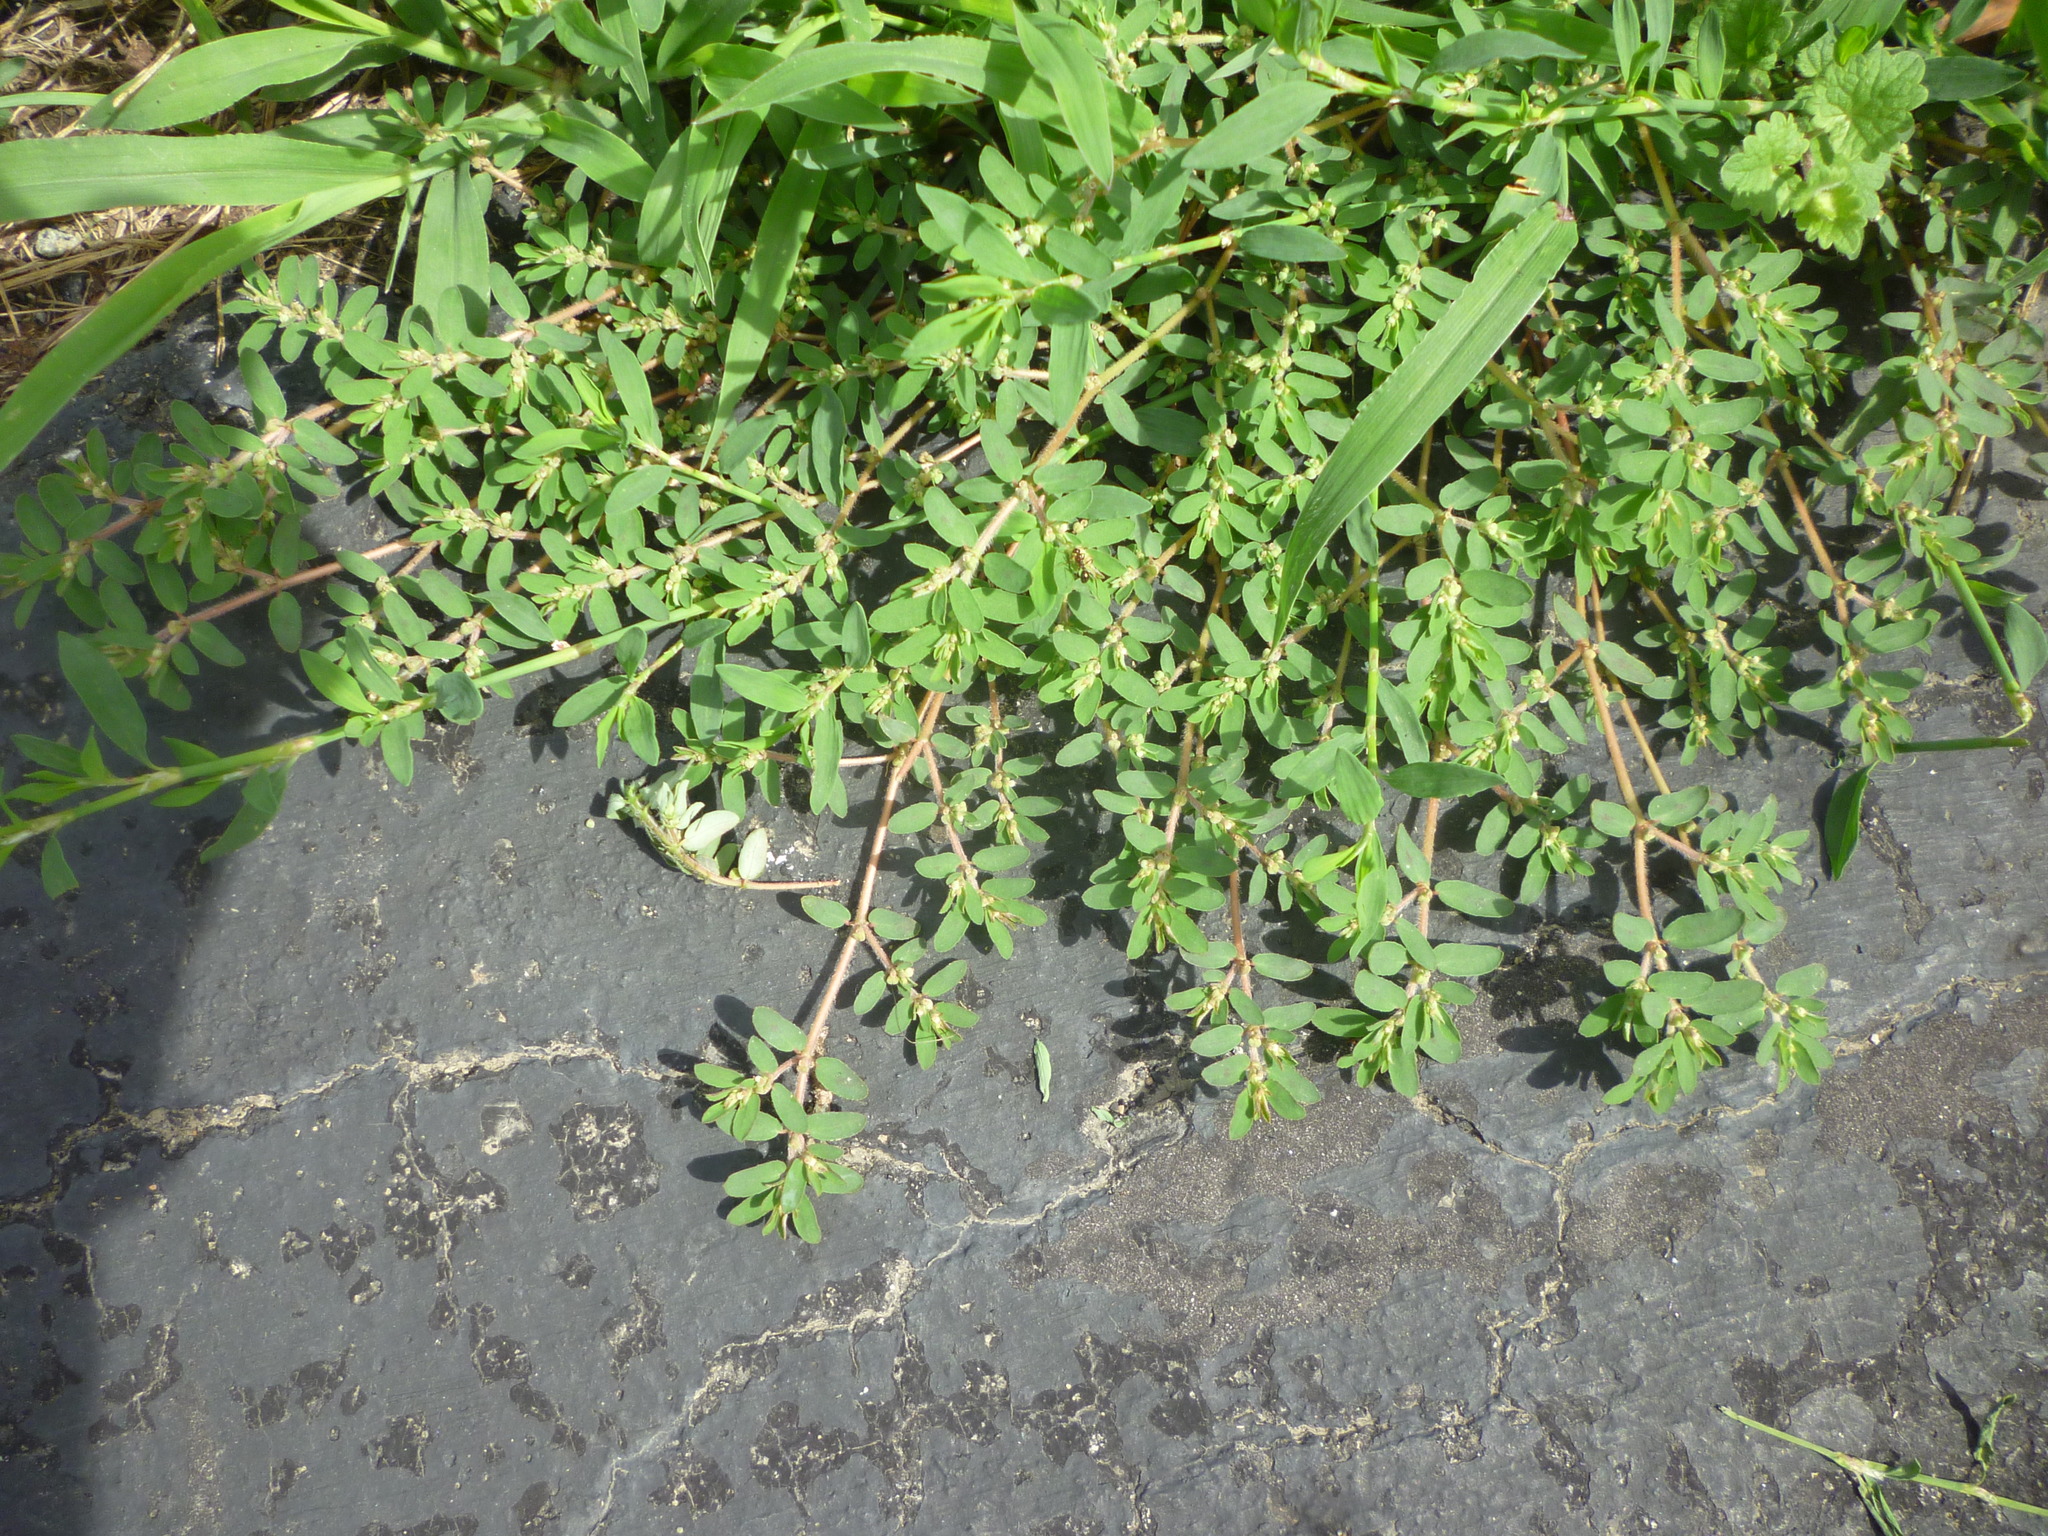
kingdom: Plantae
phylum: Tracheophyta
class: Magnoliopsida
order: Malpighiales
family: Euphorbiaceae
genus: Euphorbia
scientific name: Euphorbia maculata
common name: Spotted spurge
